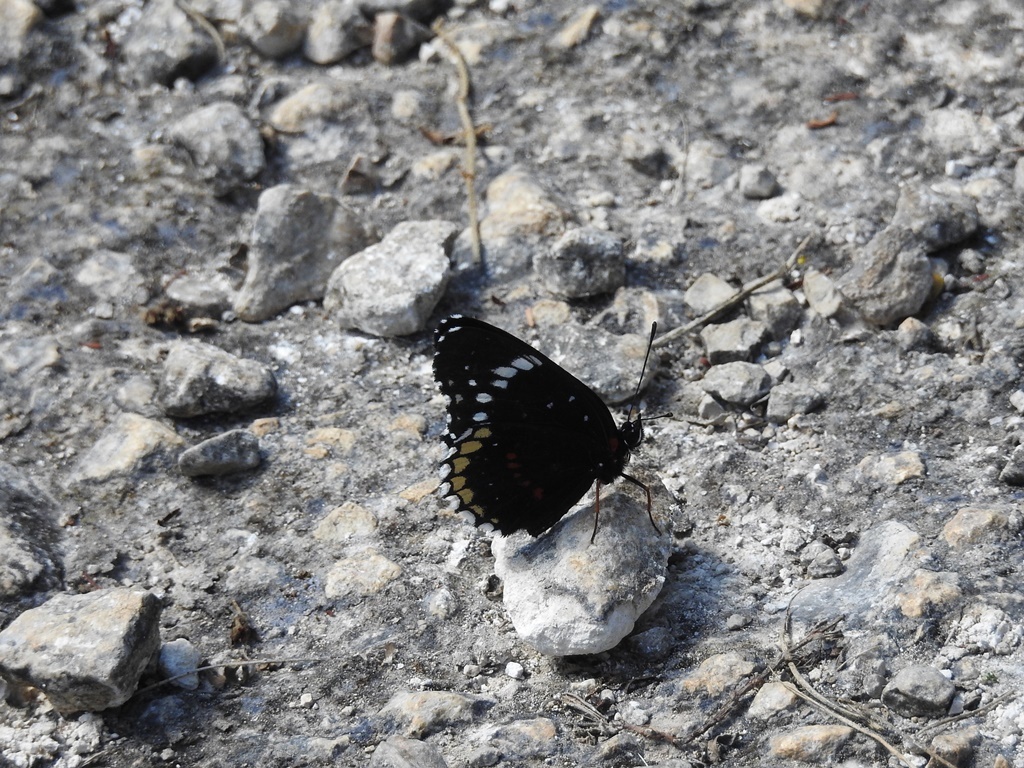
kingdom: Animalia
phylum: Arthropoda
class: Insecta
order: Lepidoptera
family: Nymphalidae
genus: Chlosyne
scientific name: Chlosyne hippodrome
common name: Simple patch
